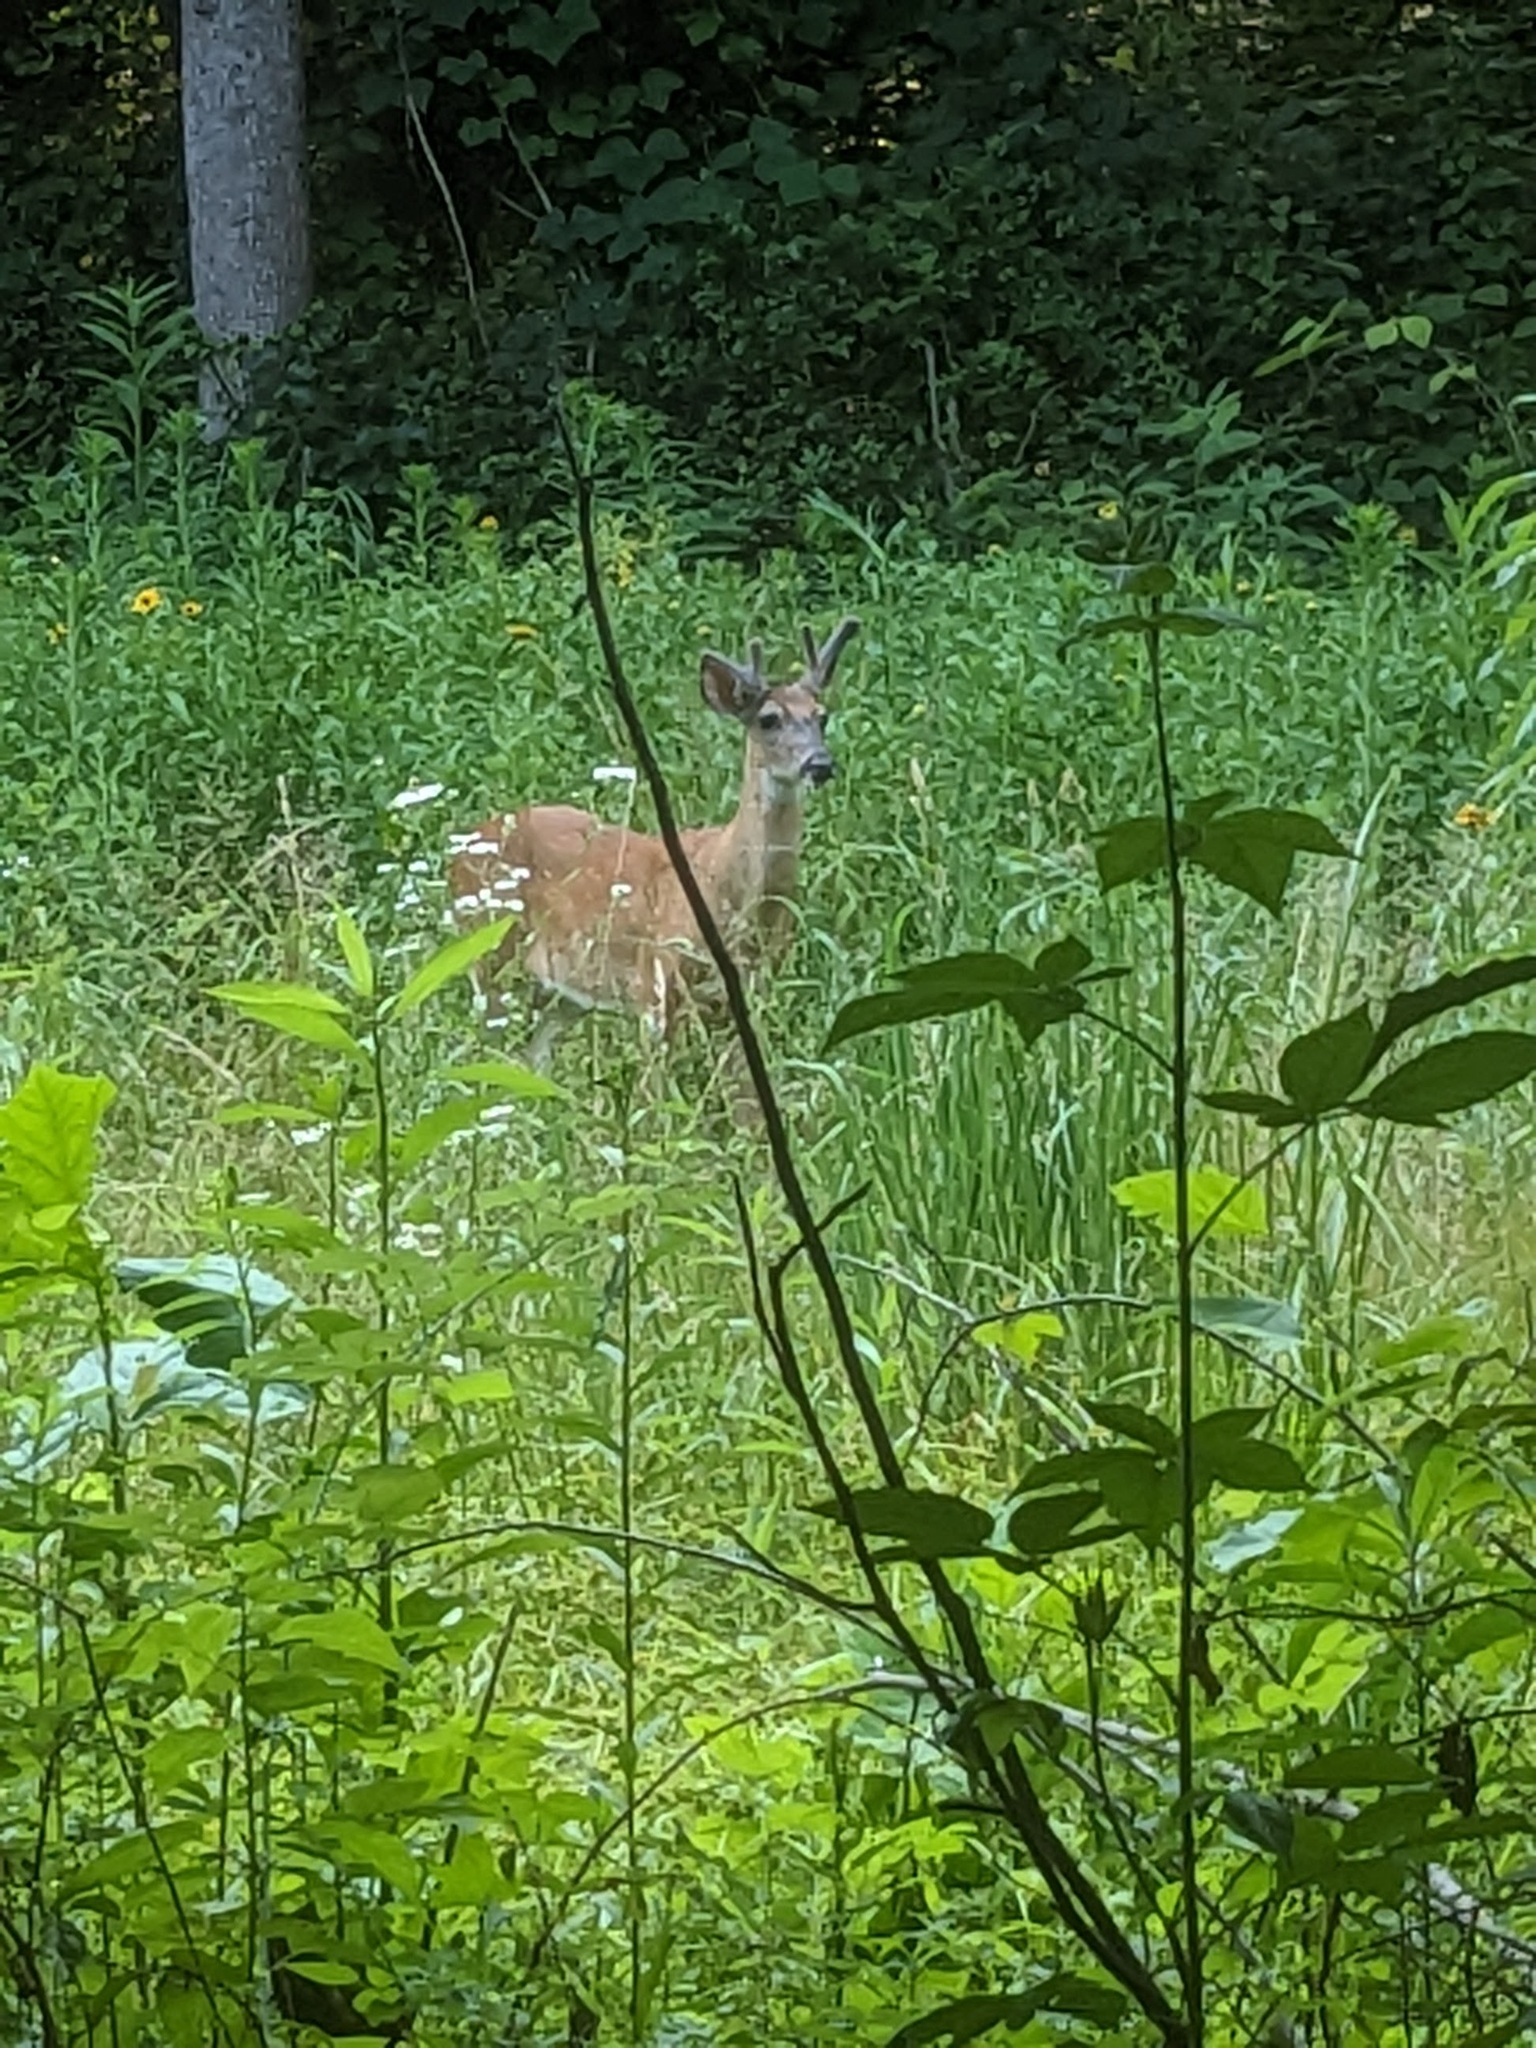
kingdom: Animalia
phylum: Chordata
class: Mammalia
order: Artiodactyla
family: Cervidae
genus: Odocoileus
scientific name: Odocoileus virginianus
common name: White-tailed deer
